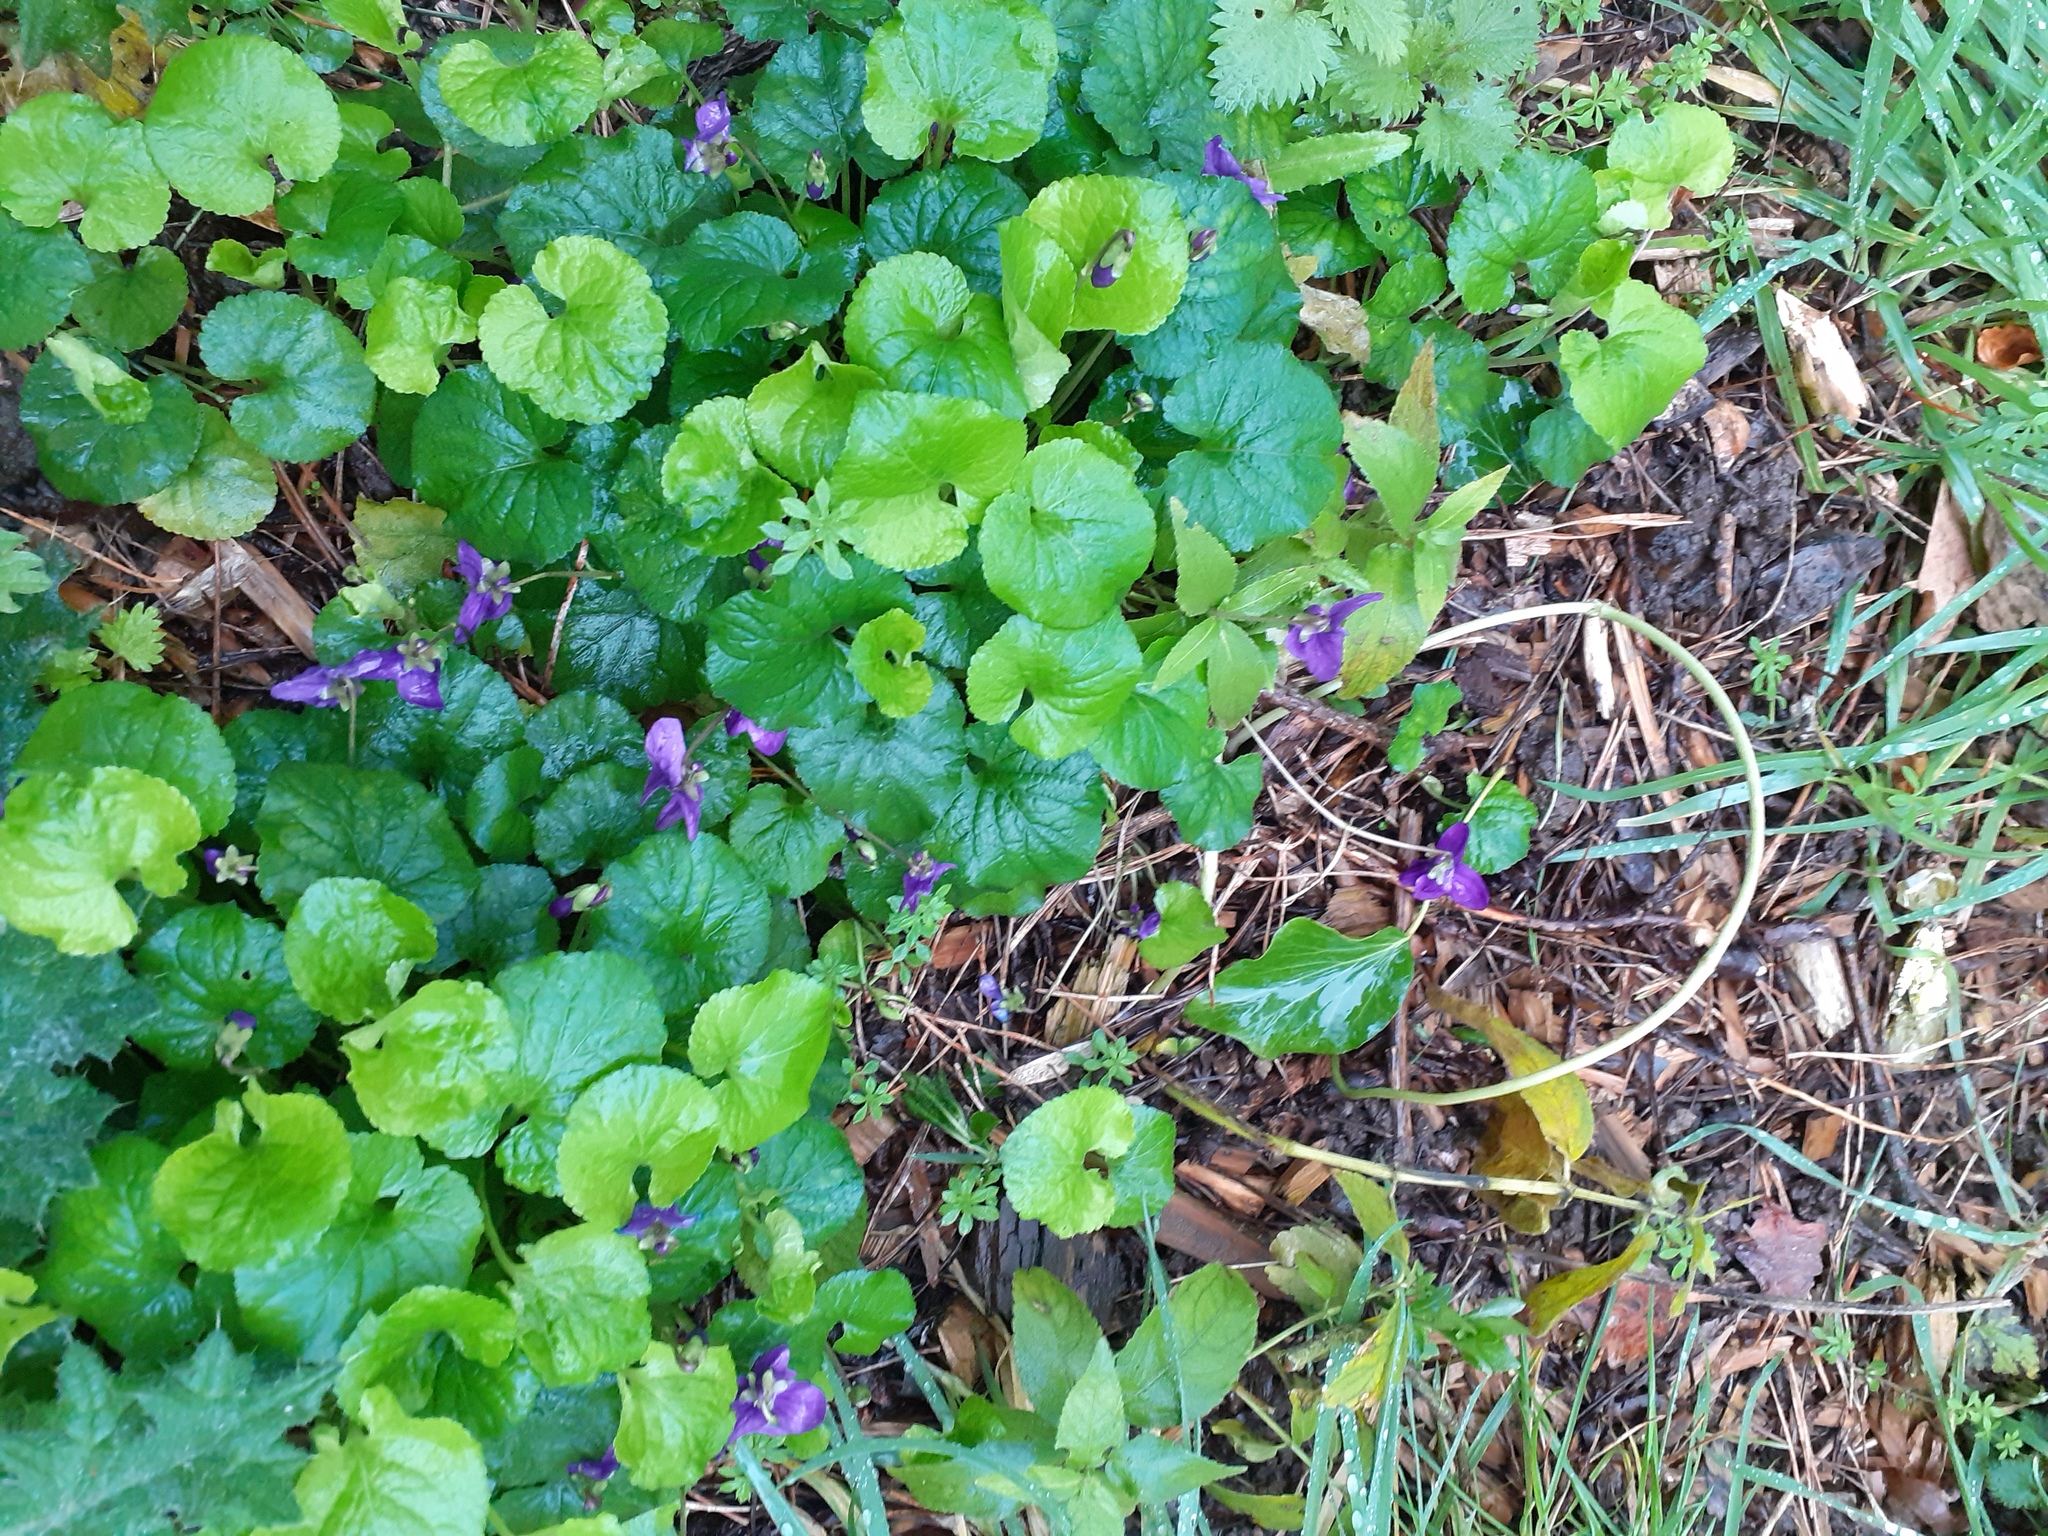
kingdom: Plantae
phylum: Tracheophyta
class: Magnoliopsida
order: Malpighiales
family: Violaceae
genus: Viola
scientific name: Viola odorata
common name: Sweet violet
